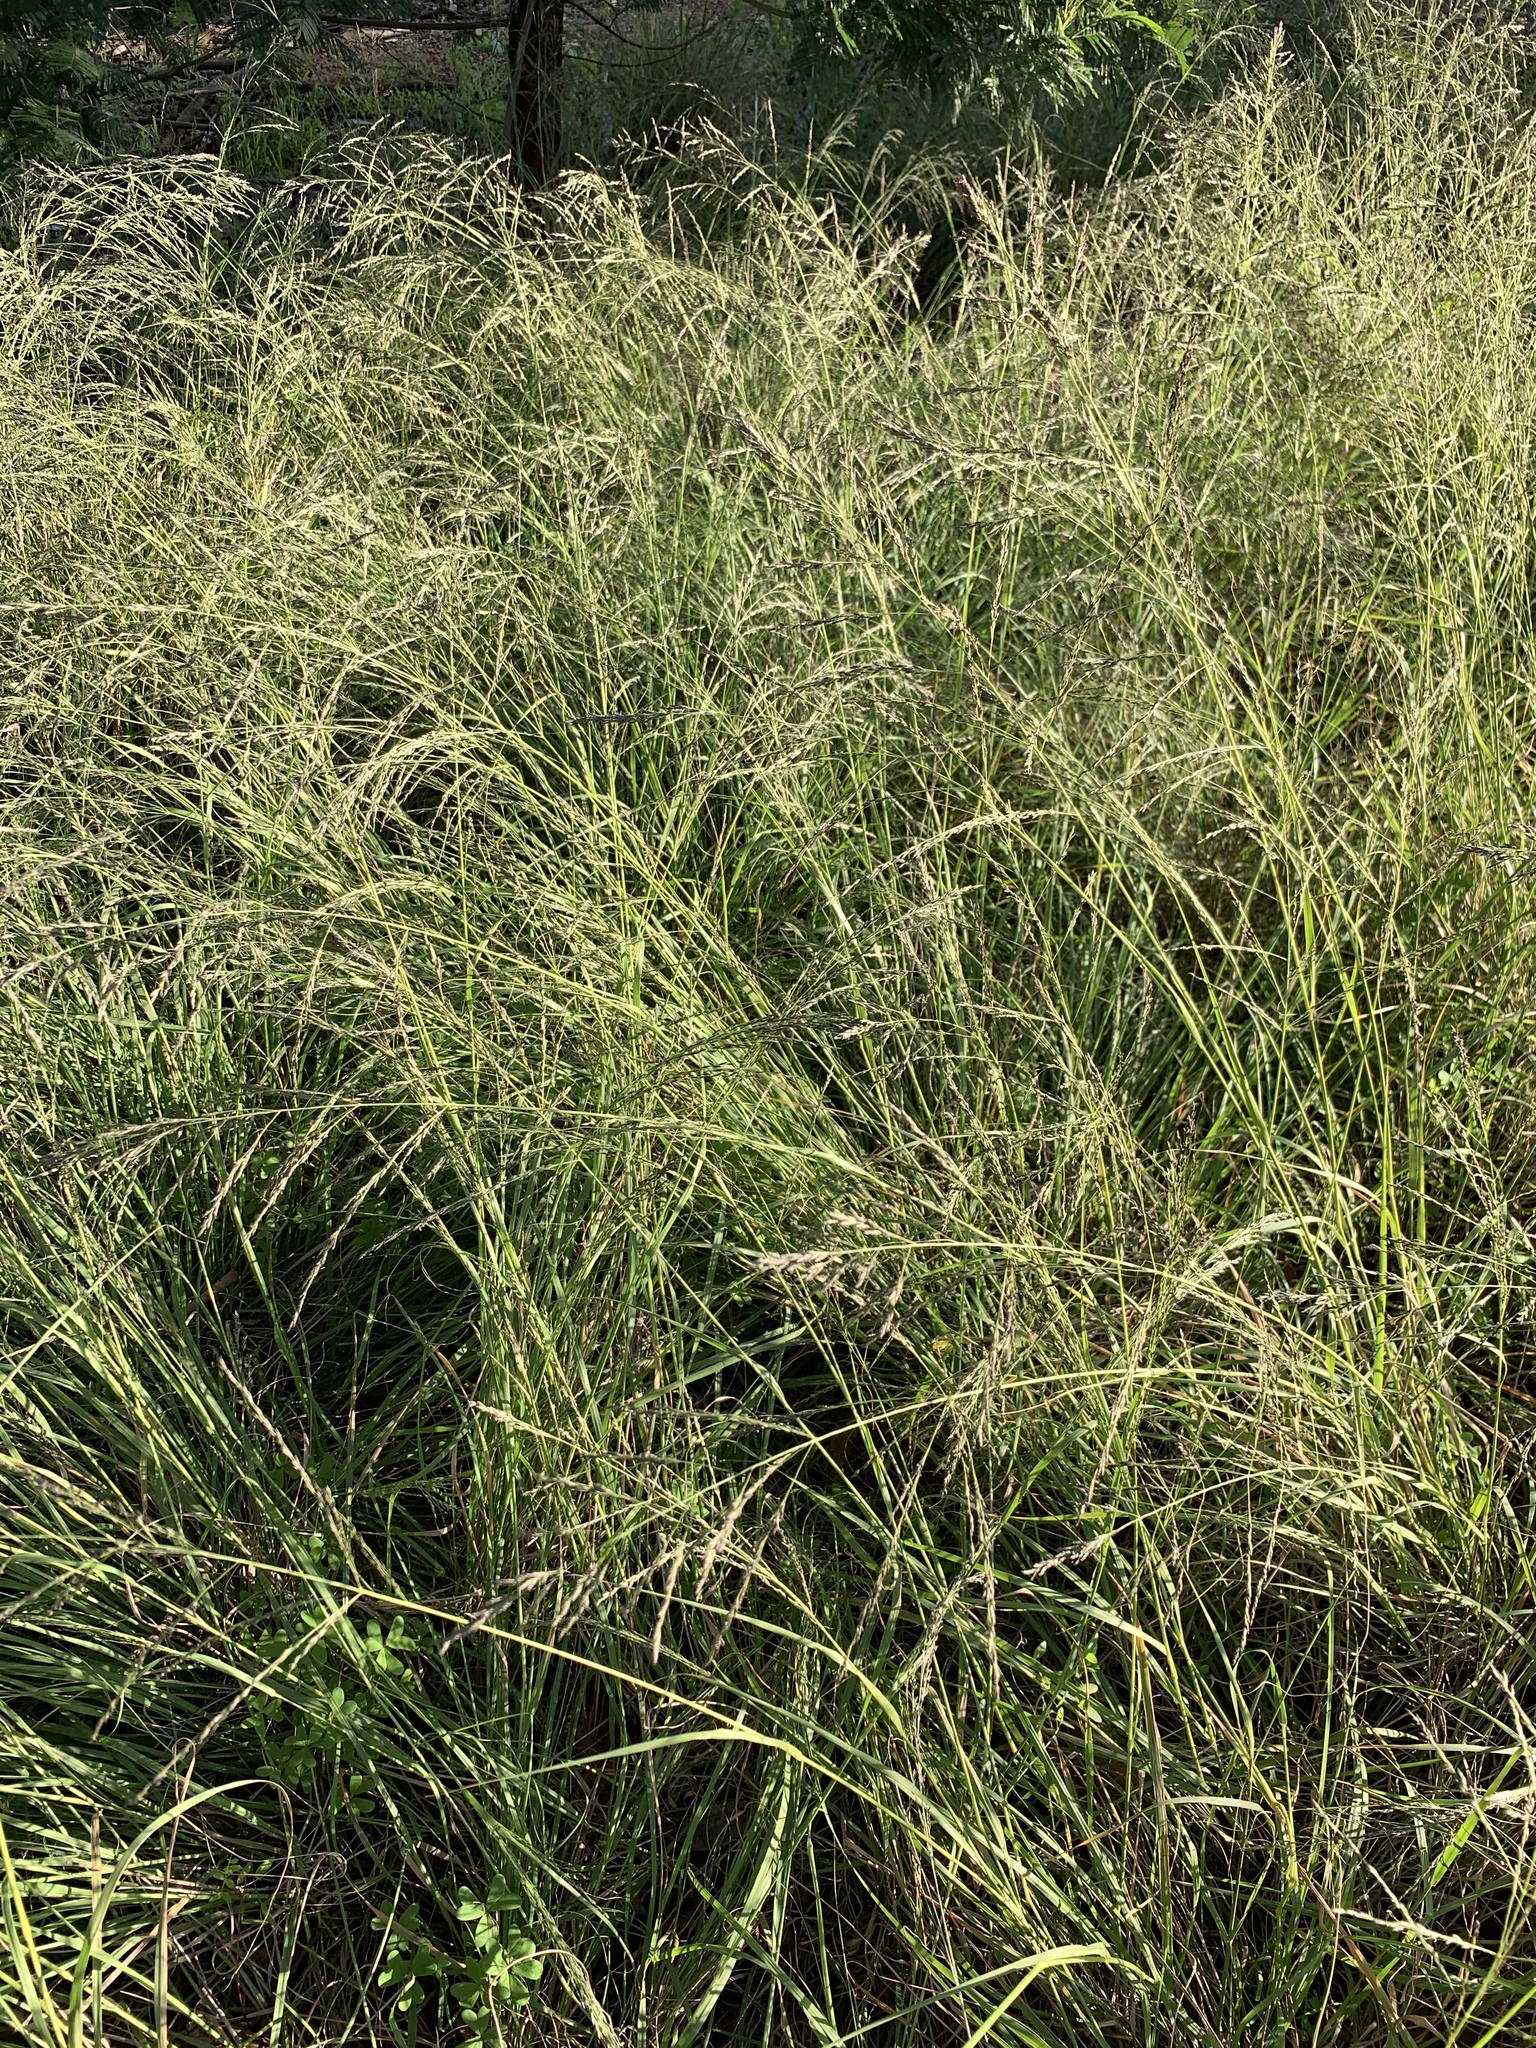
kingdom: Plantae
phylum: Tracheophyta
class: Liliopsida
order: Poales
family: Poaceae
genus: Eragrostis
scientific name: Eragrostis curvula
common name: African love-grass
